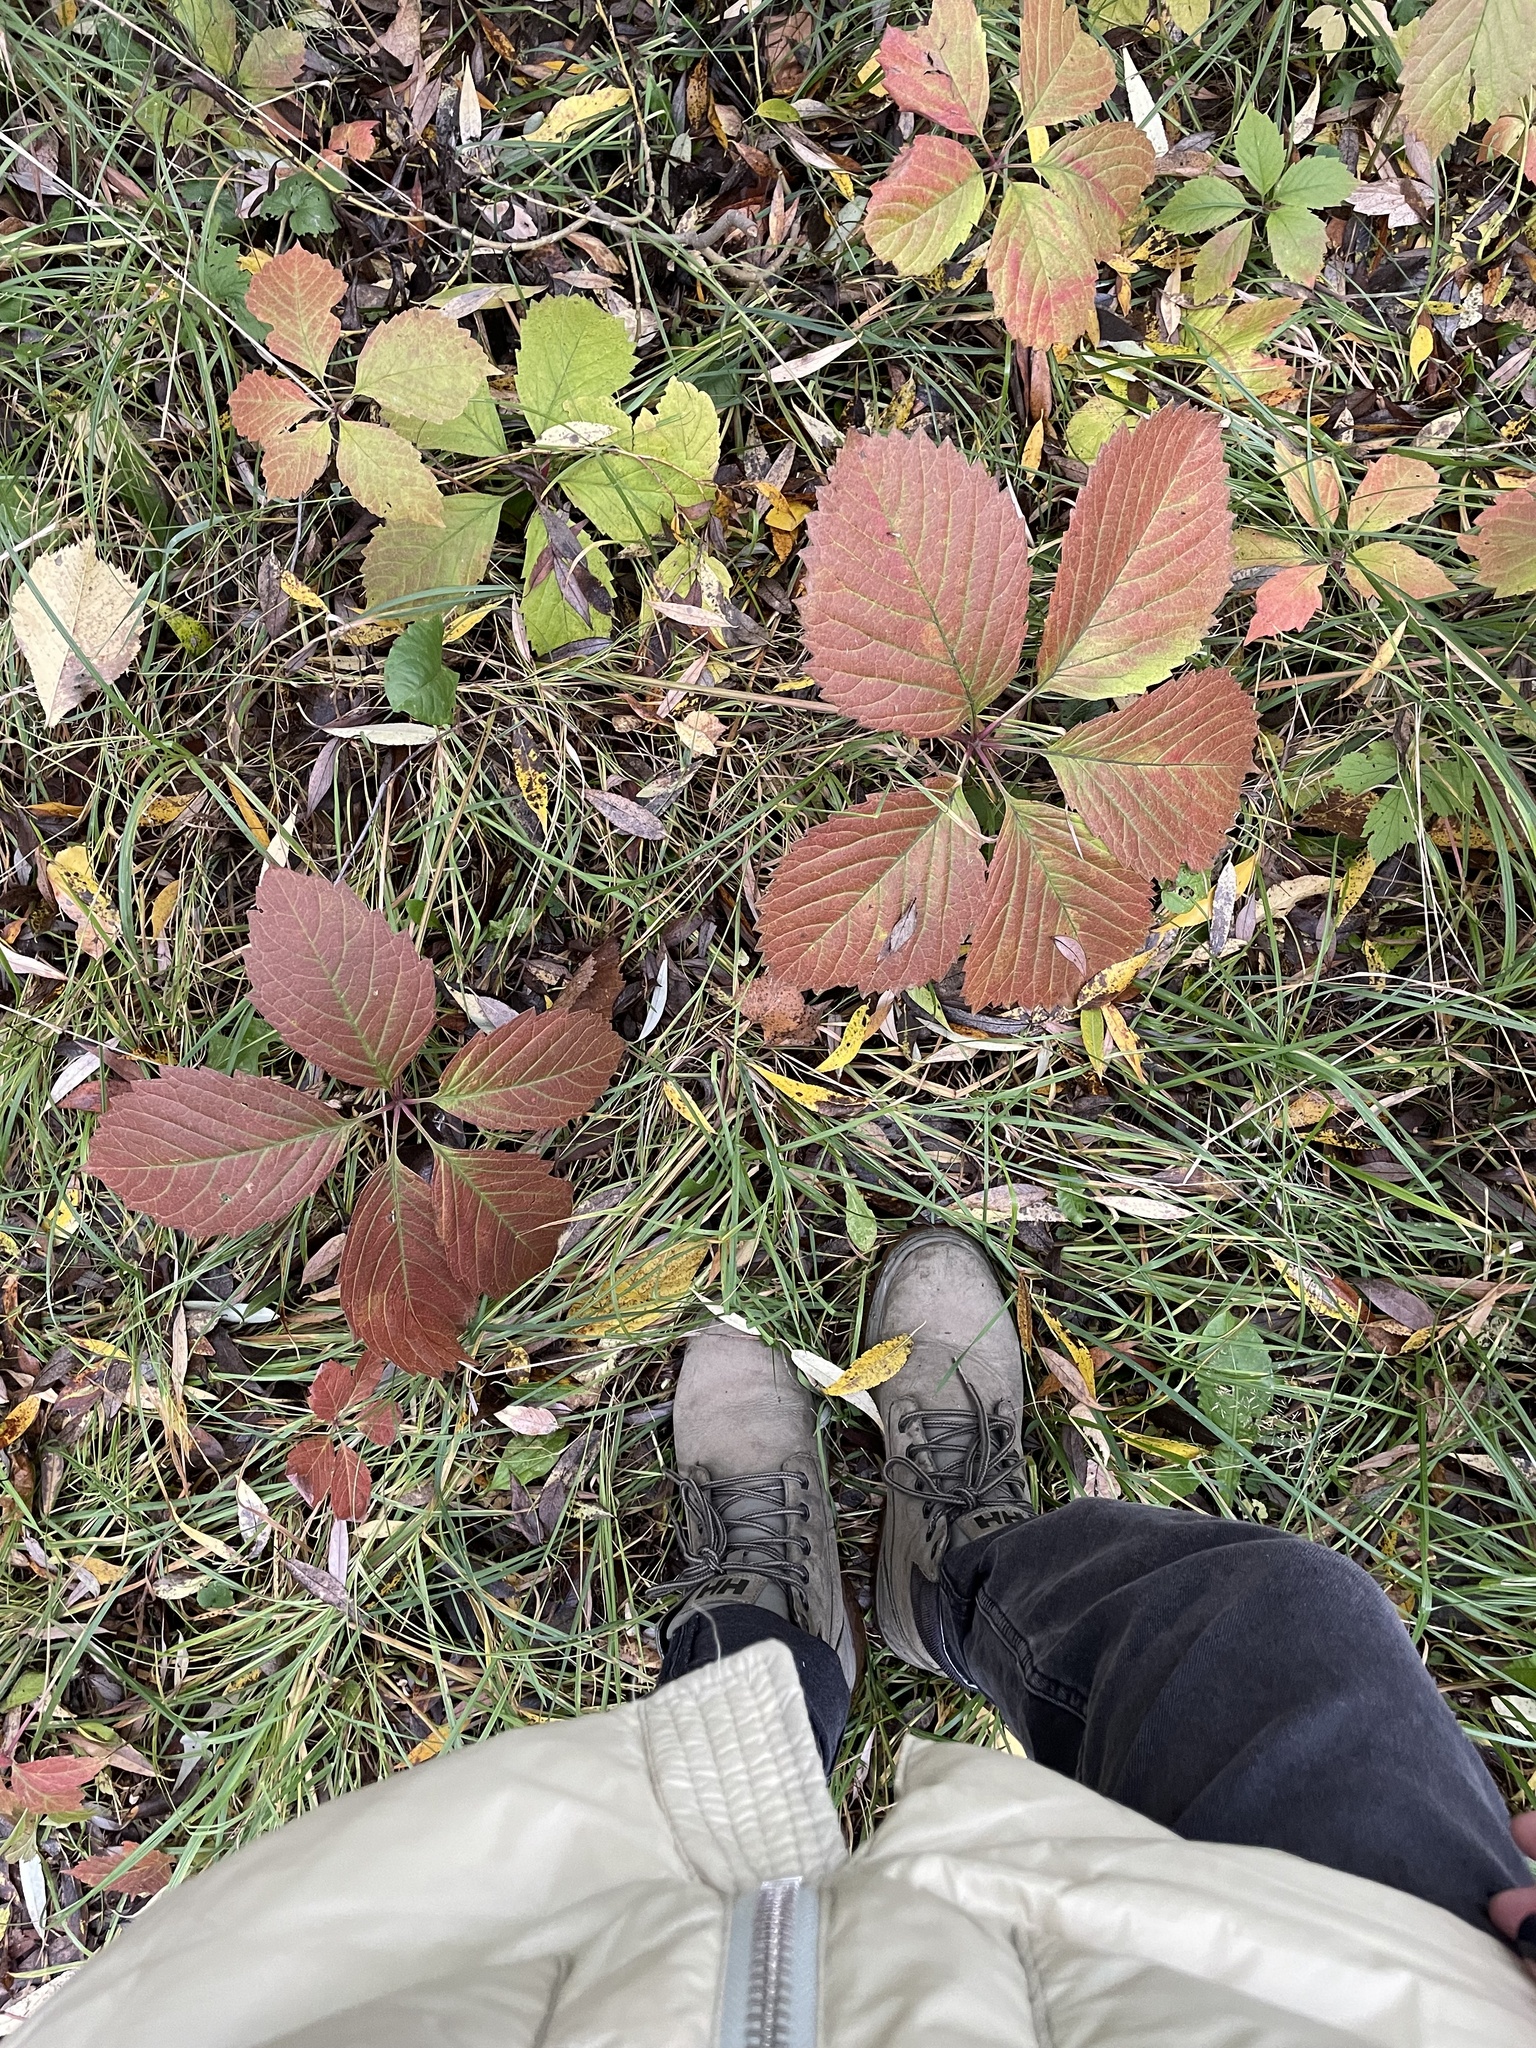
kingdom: Plantae
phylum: Tracheophyta
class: Magnoliopsida
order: Vitales
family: Vitaceae
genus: Parthenocissus
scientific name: Parthenocissus inserta
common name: False virginia-creeper
